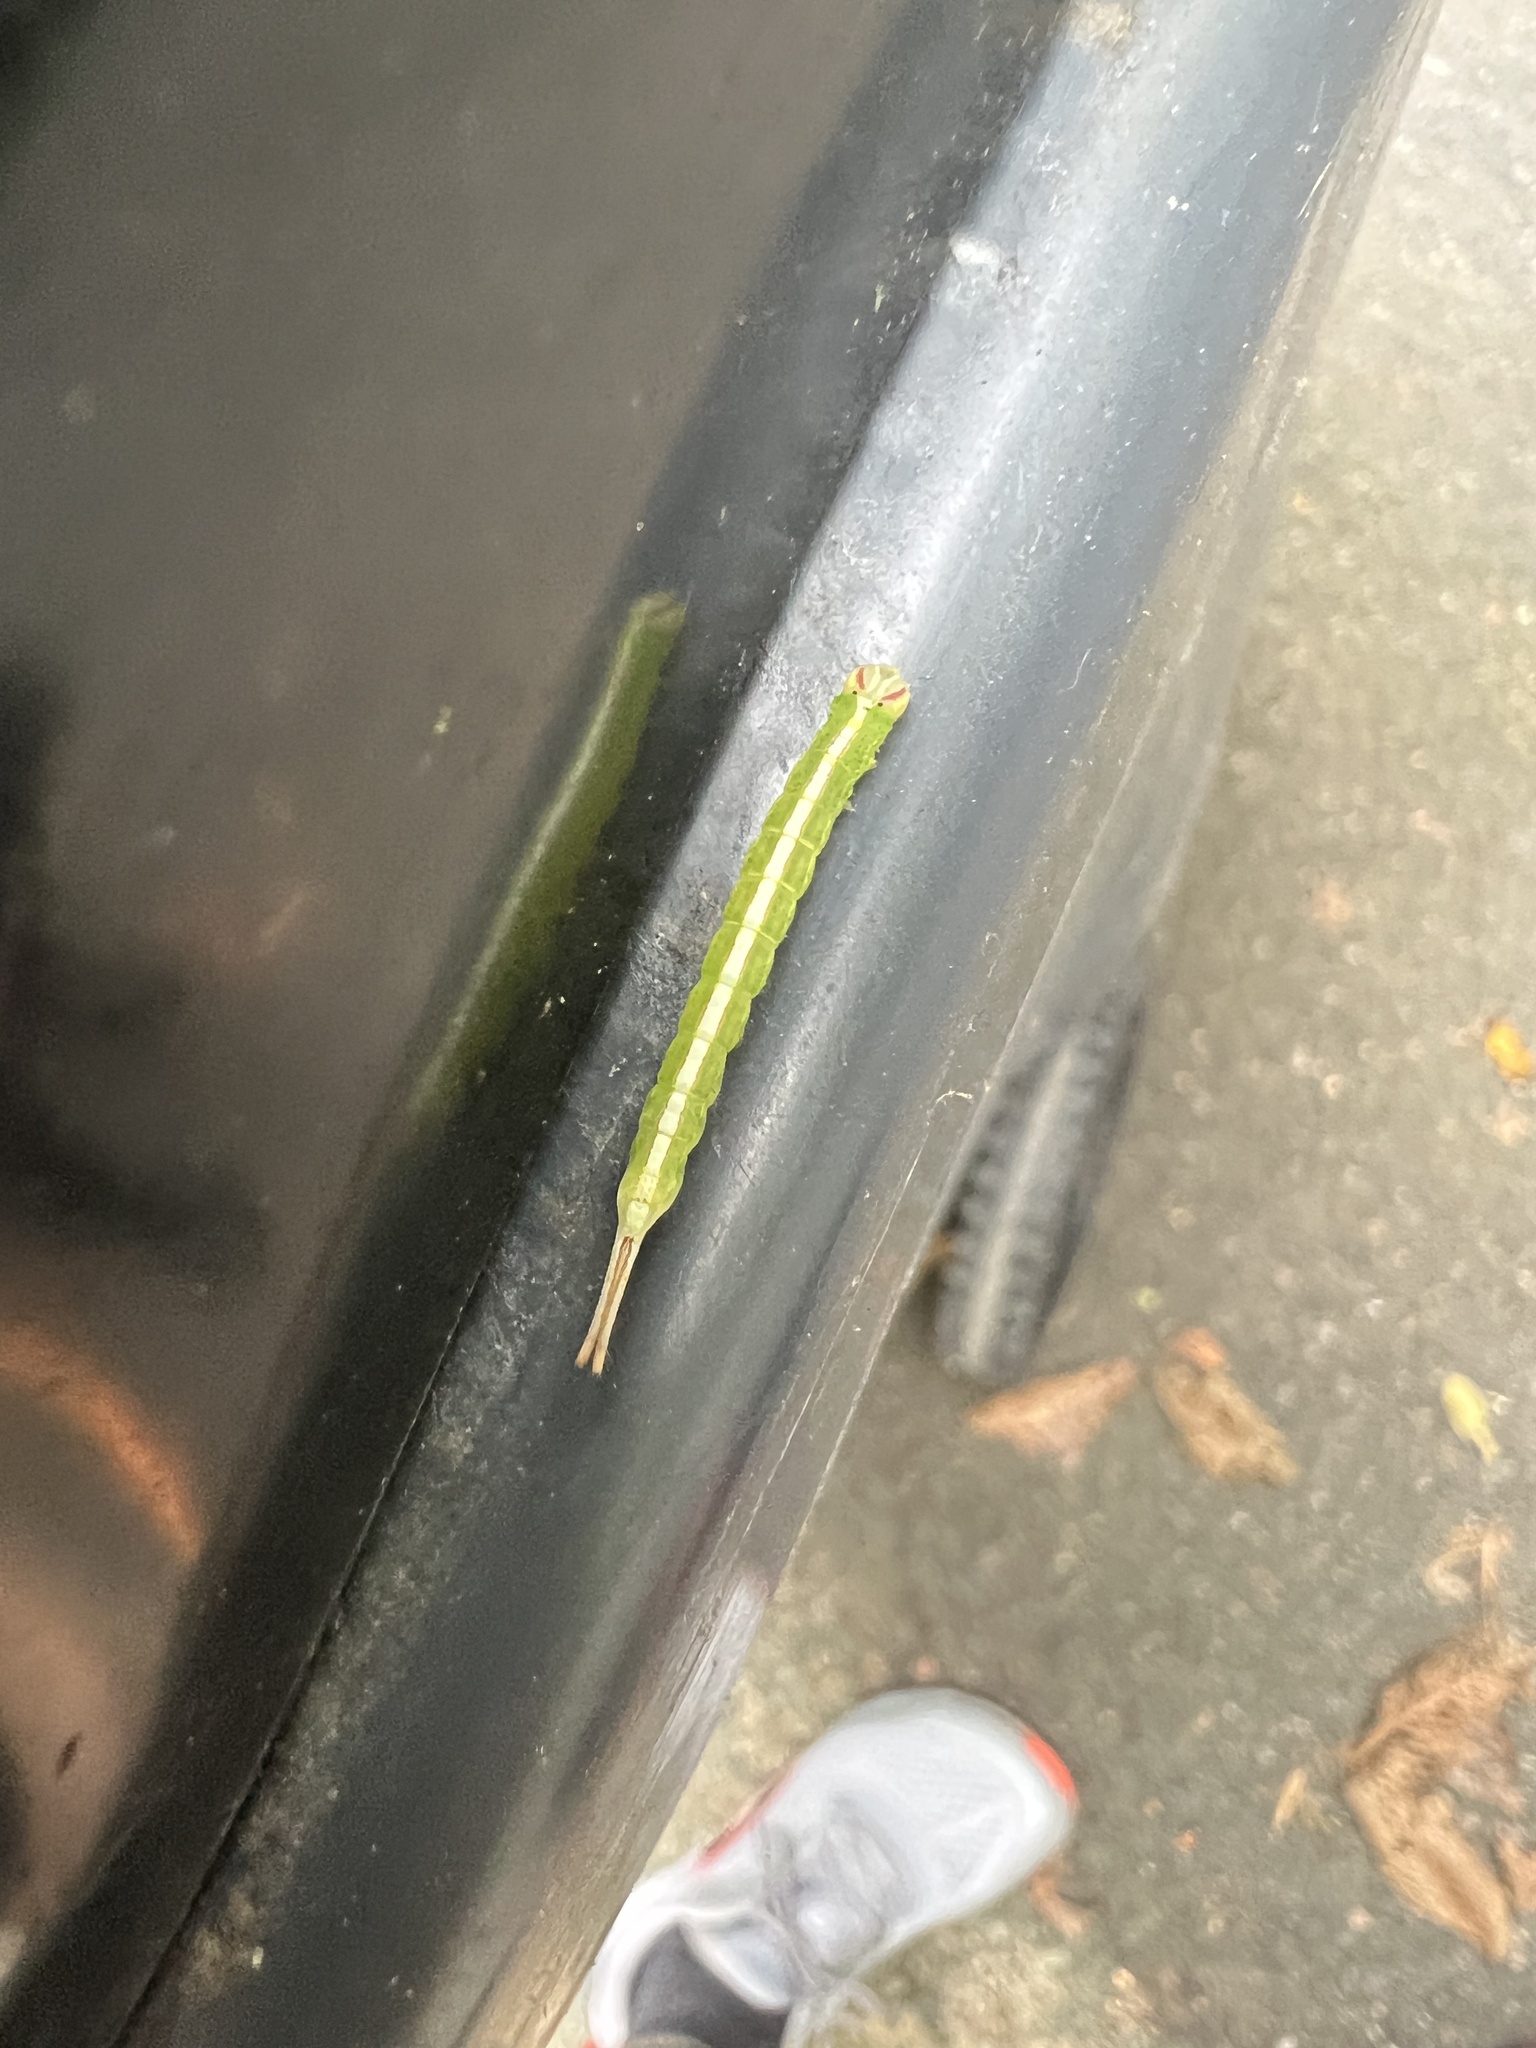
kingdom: Animalia
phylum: Arthropoda
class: Insecta
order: Lepidoptera
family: Notodontidae
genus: Misogada
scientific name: Misogada unicolor
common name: Drab prominent
